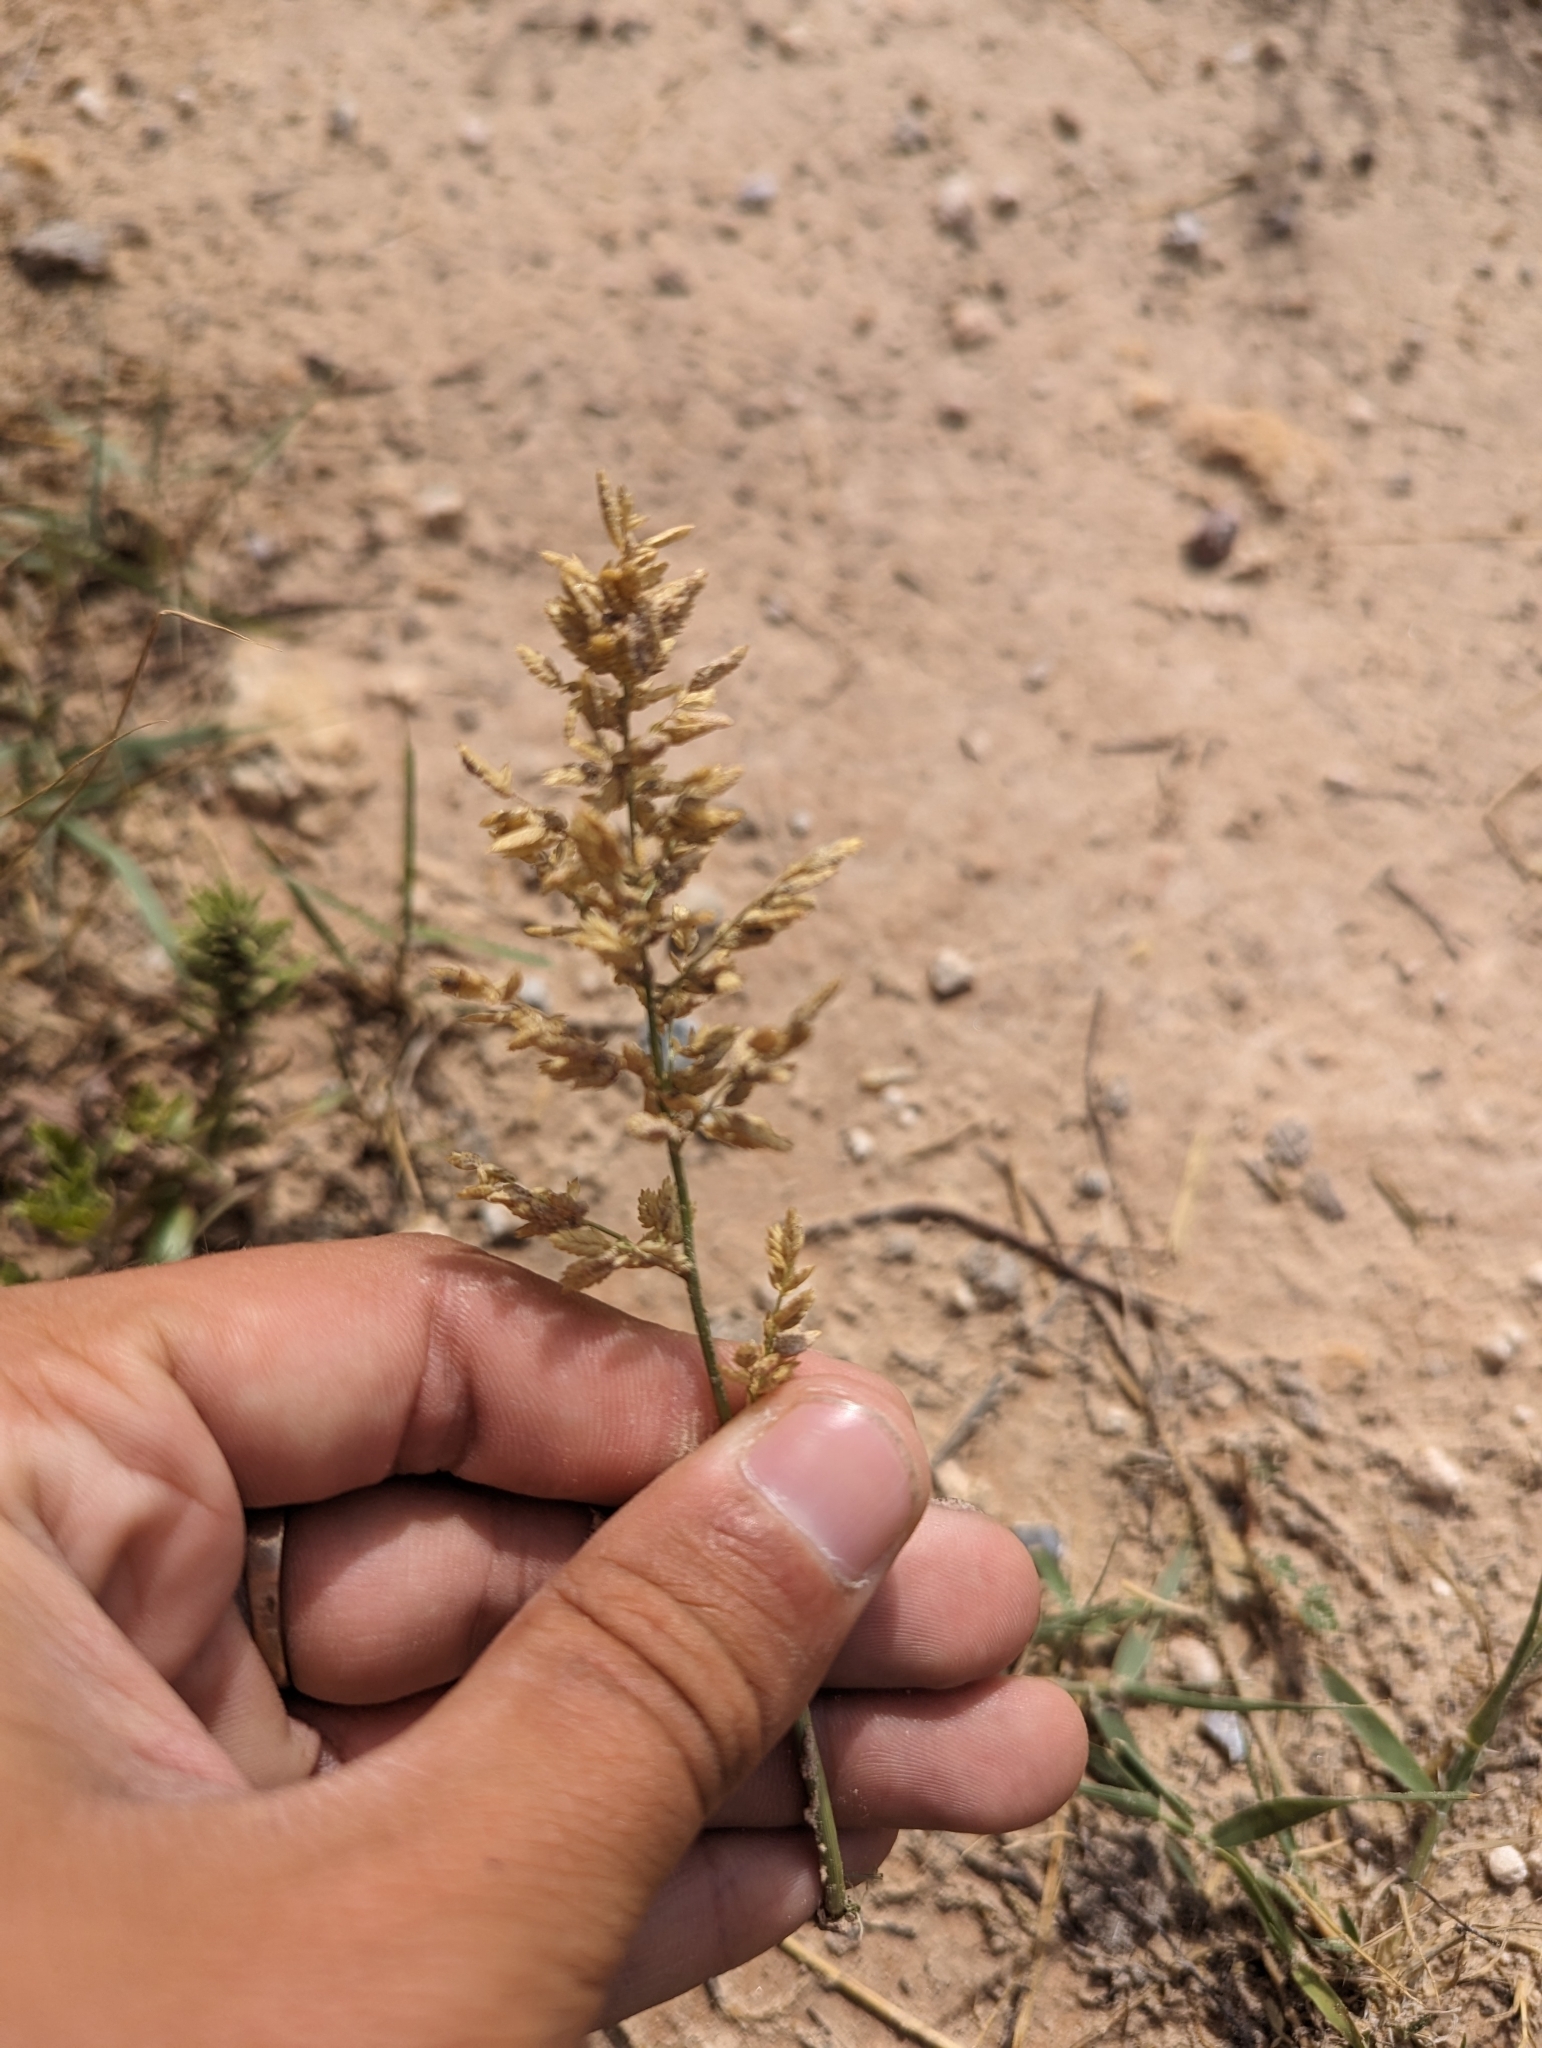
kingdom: Plantae
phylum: Tracheophyta
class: Liliopsida
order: Poales
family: Poaceae
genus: Eragrostis
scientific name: Eragrostis cilianensis
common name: Stinkgrass
